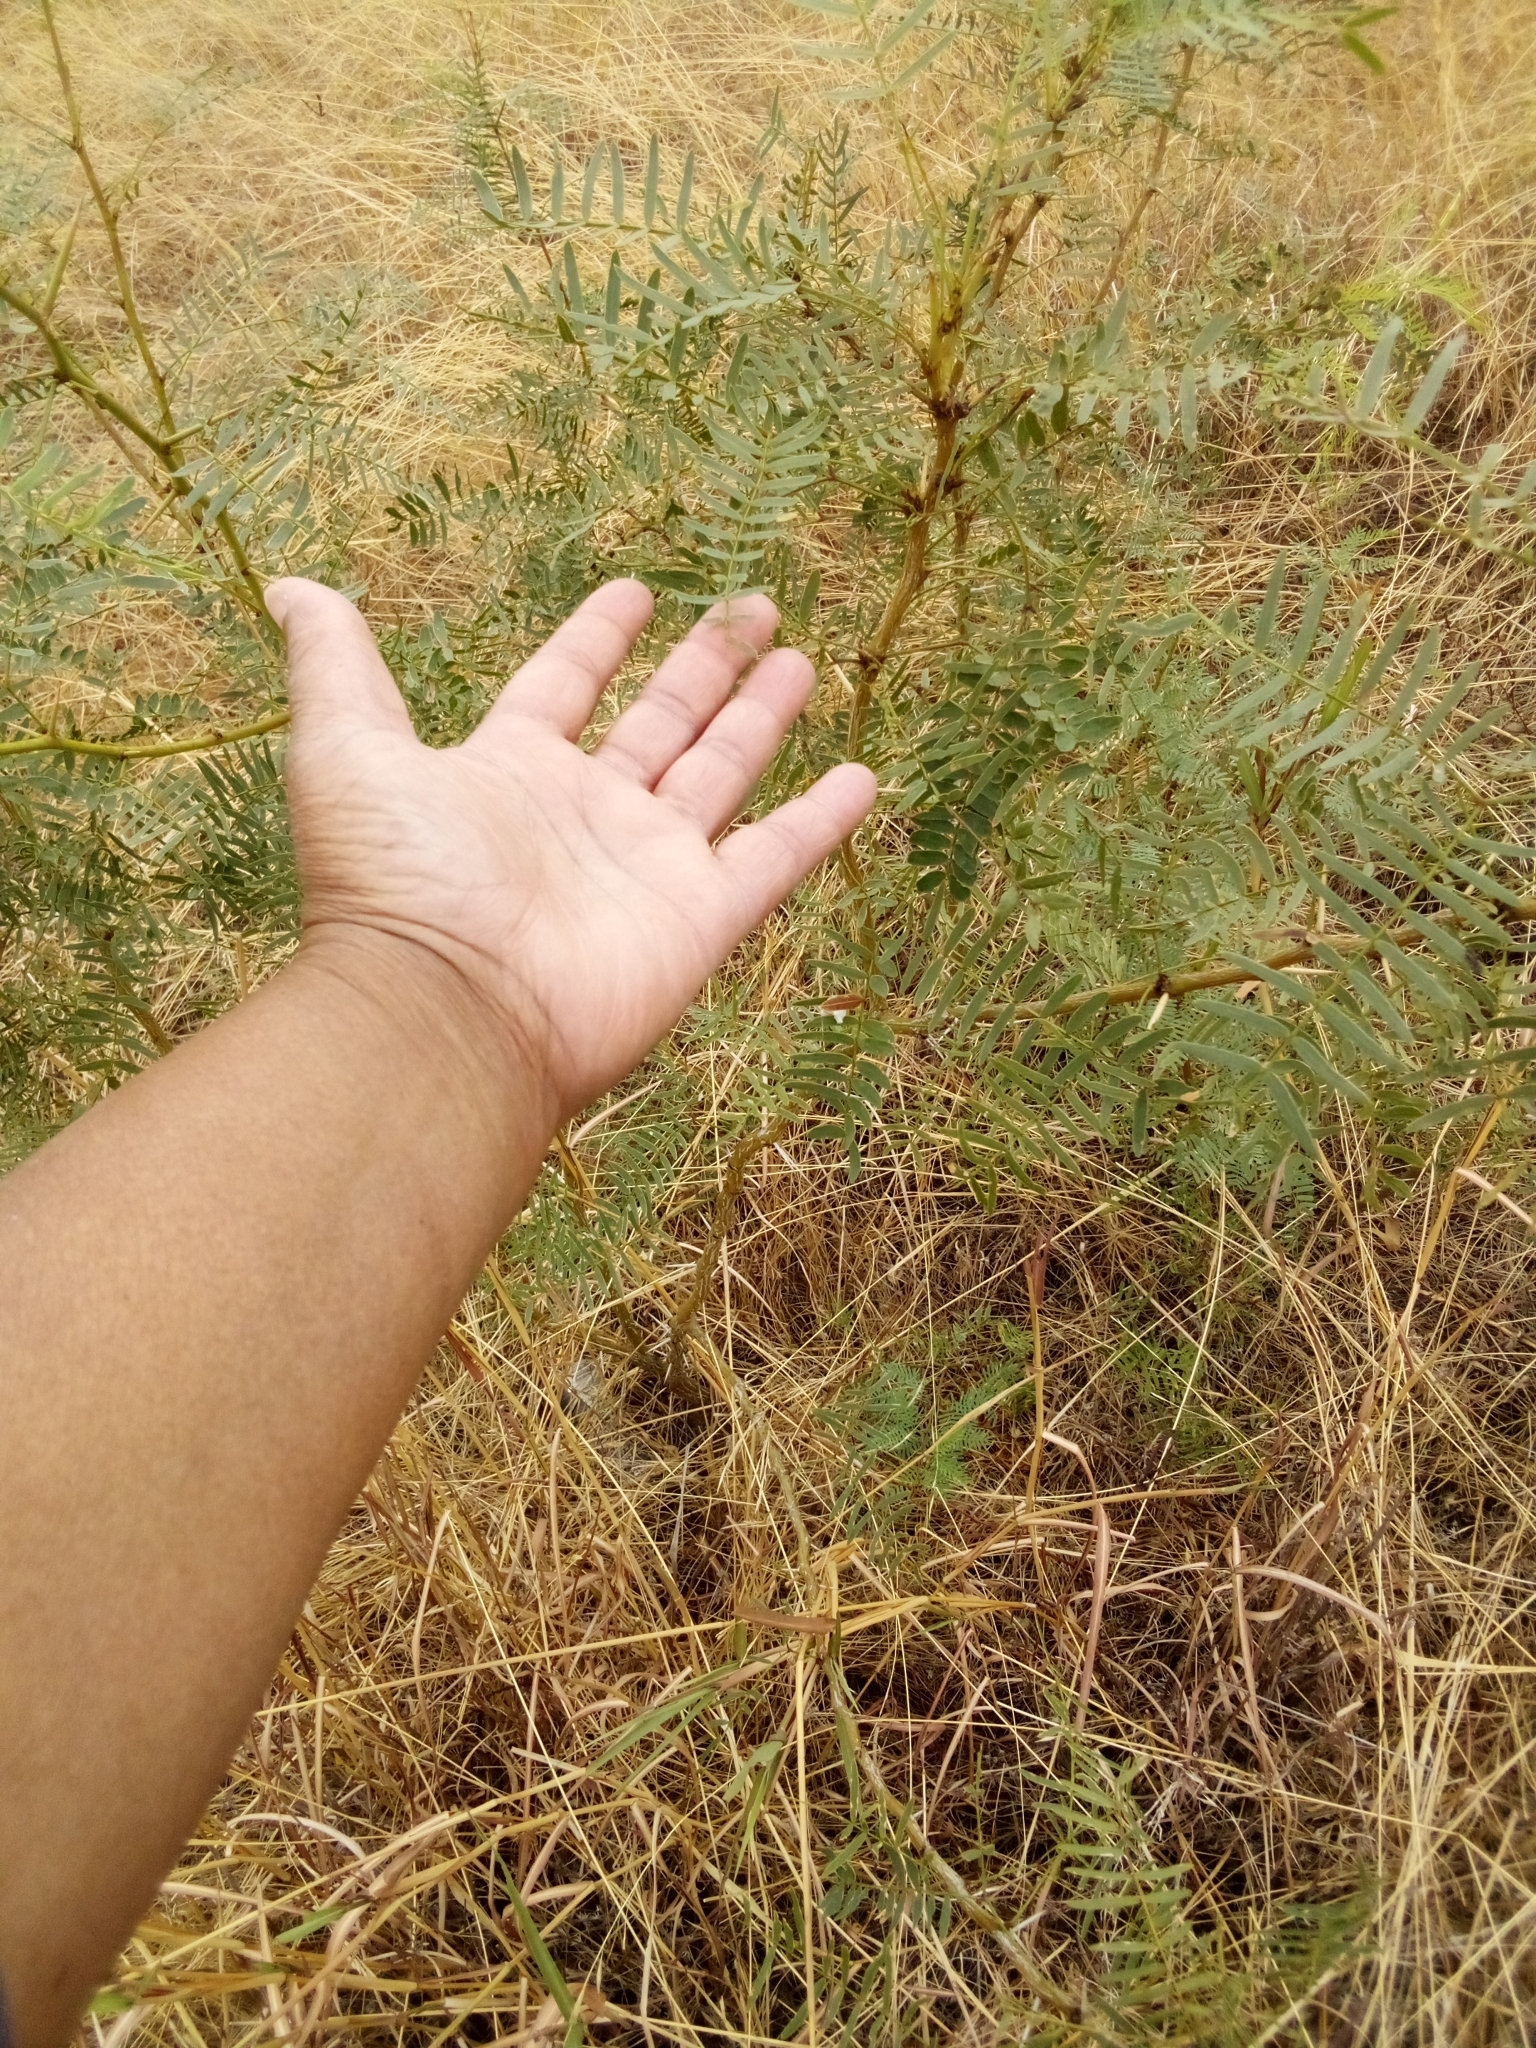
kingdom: Plantae
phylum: Tracheophyta
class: Magnoliopsida
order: Fabales
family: Fabaceae
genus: Prosopis
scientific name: Prosopis glandulosa
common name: Honey mesquite
